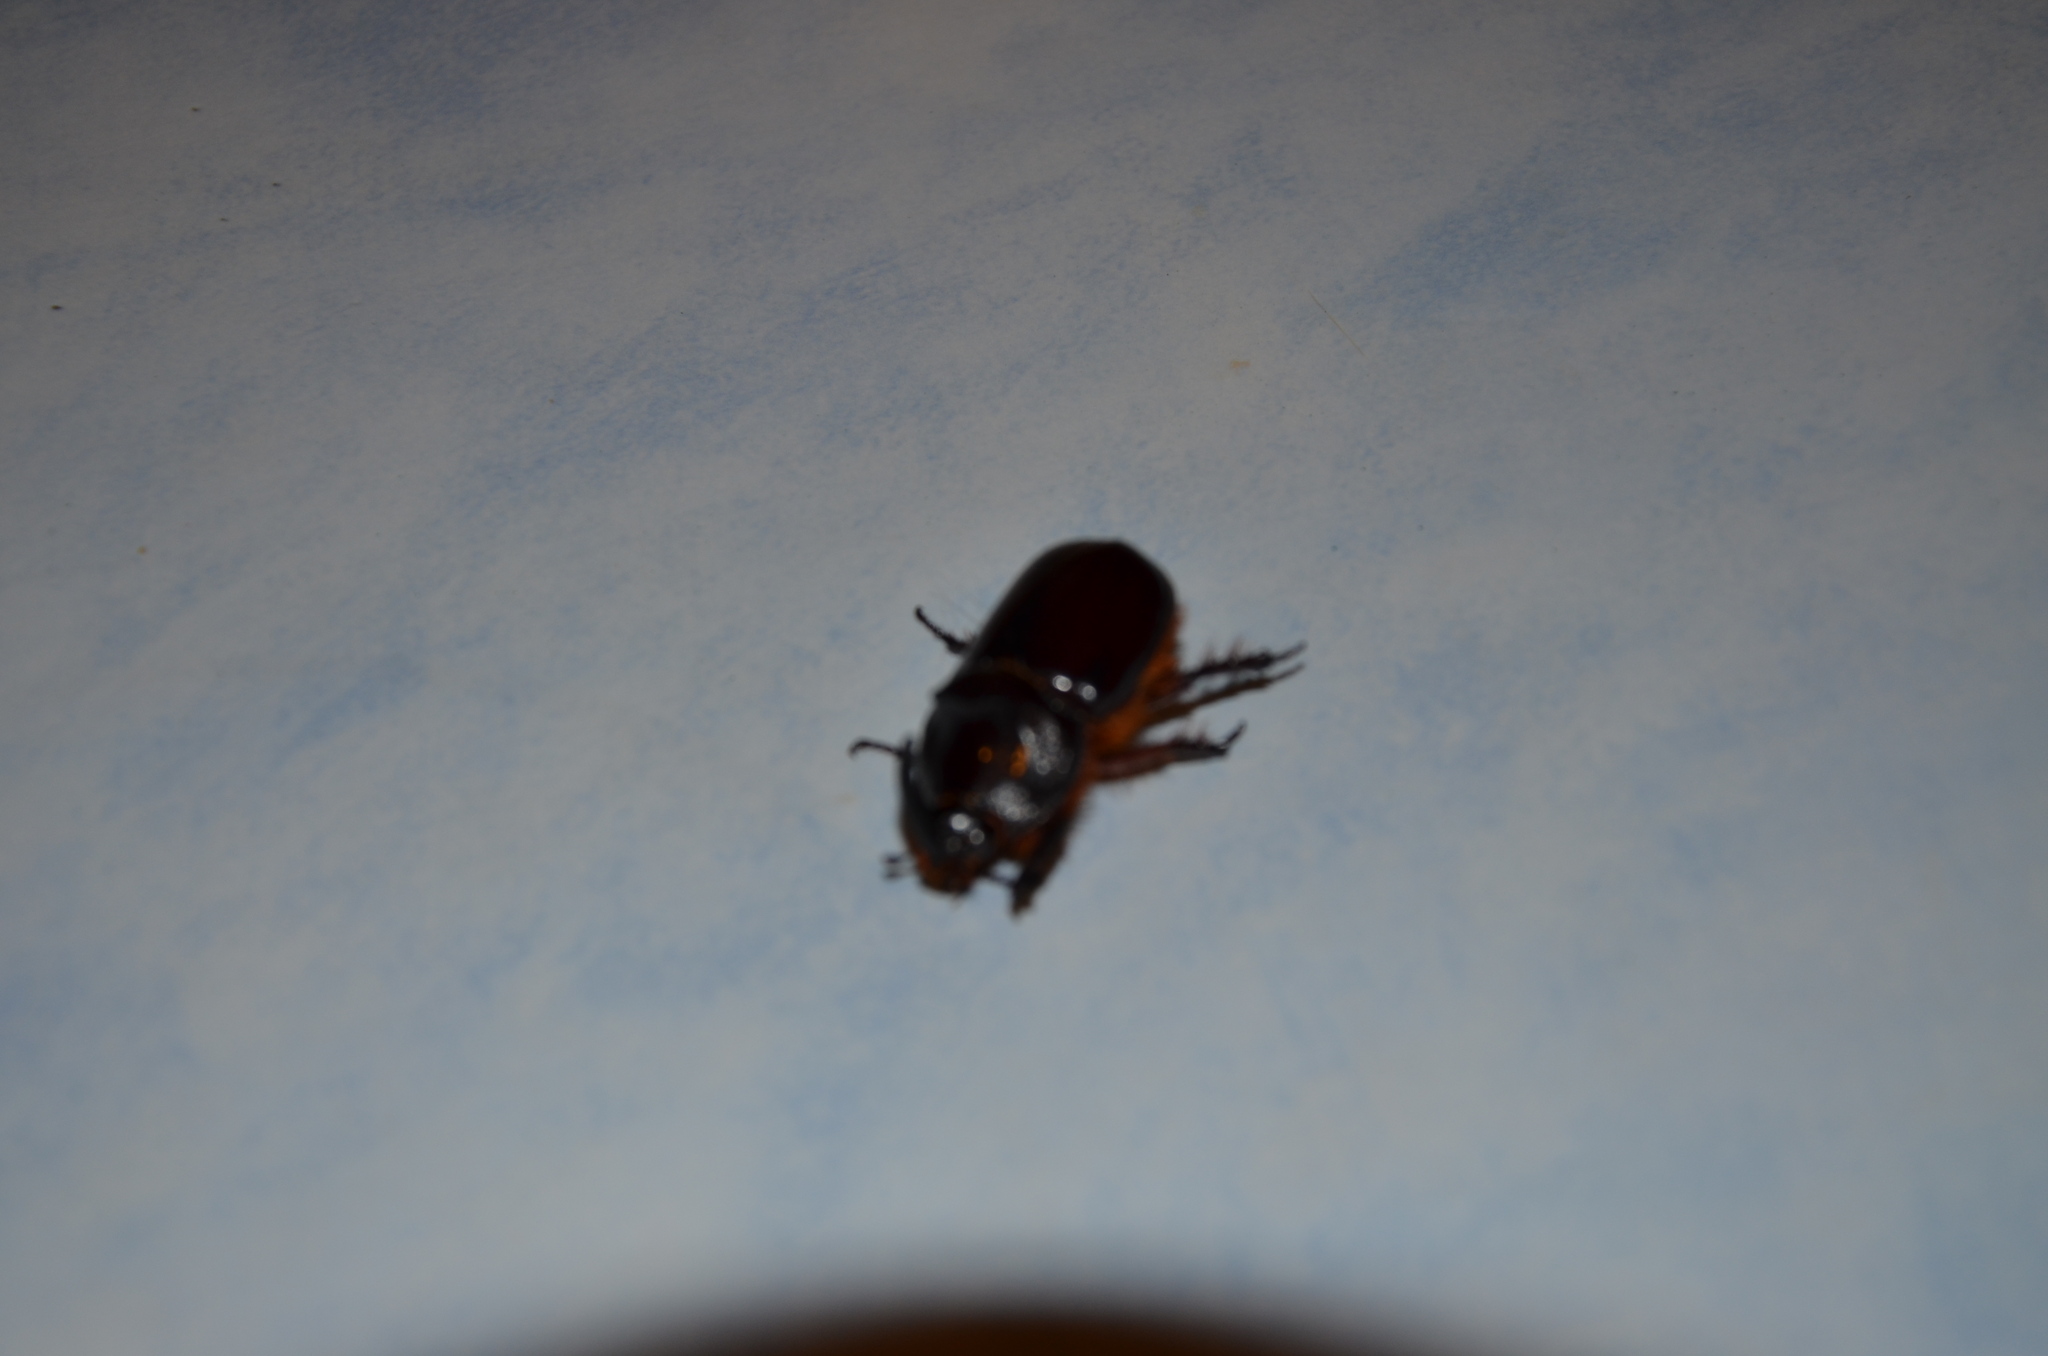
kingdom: Animalia
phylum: Arthropoda
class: Insecta
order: Coleoptera
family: Scarabaeidae
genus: Oryctes
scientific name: Oryctes nasicornis
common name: European rhinoceros beetle
